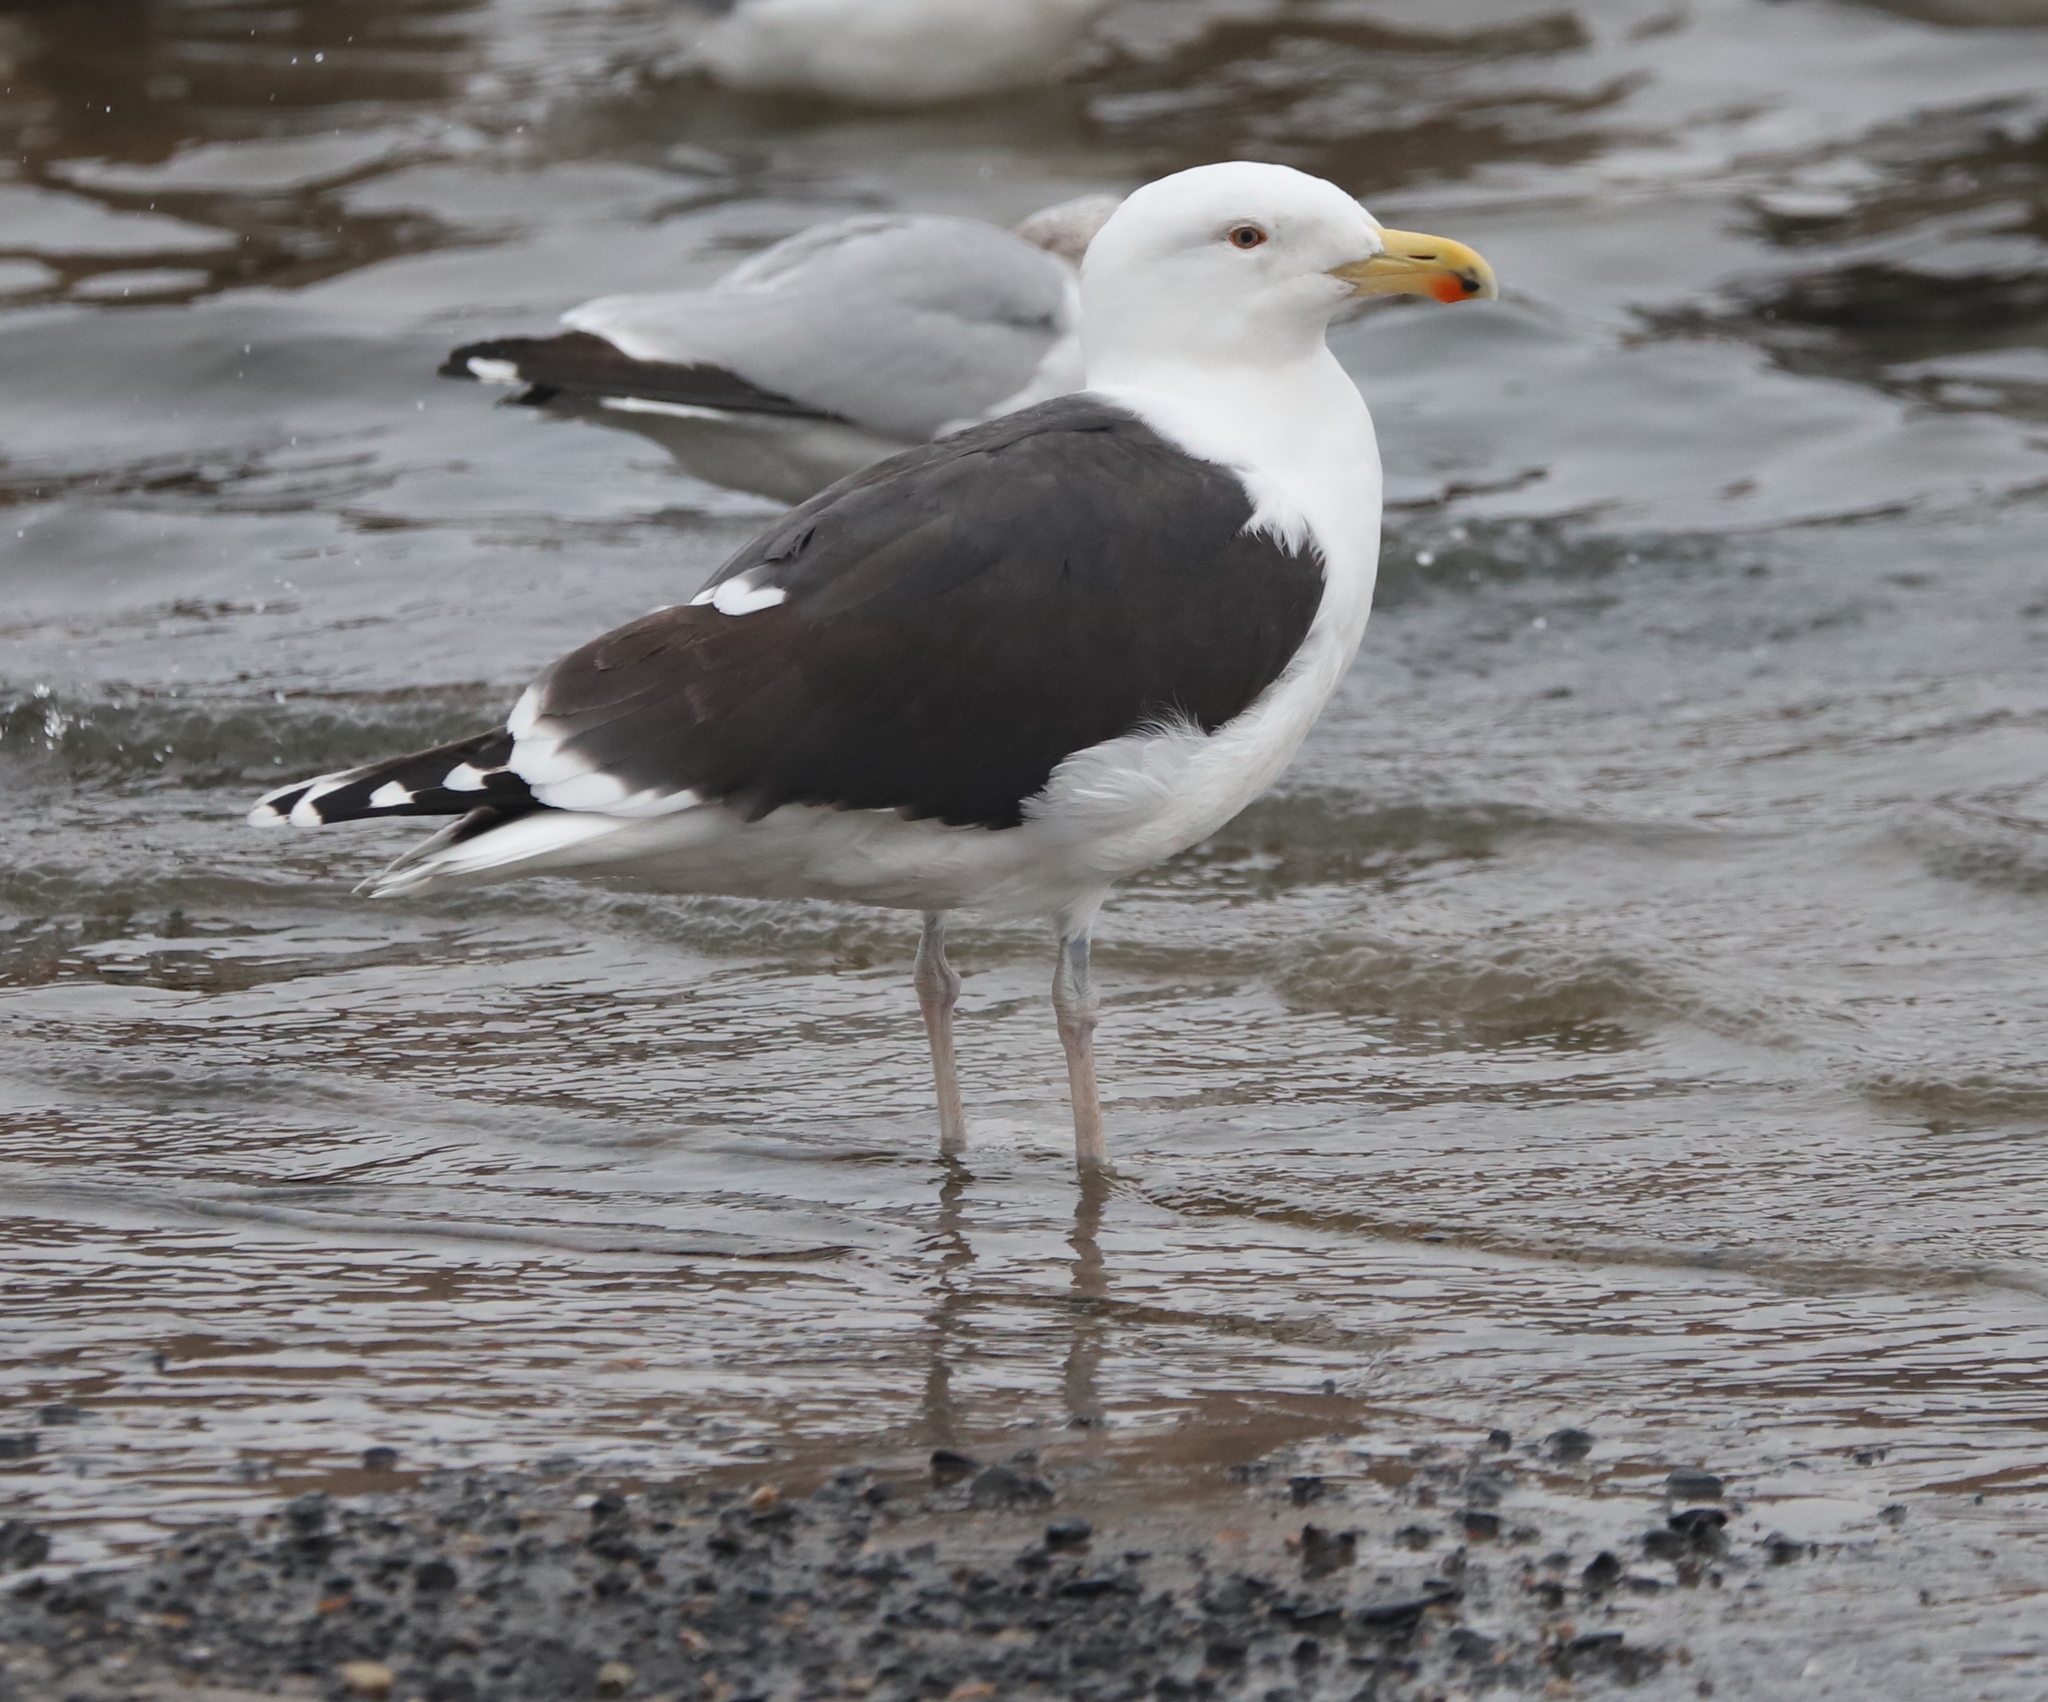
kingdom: Animalia
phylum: Chordata
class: Aves
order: Charadriiformes
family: Laridae
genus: Larus
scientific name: Larus marinus
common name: Great black-backed gull
